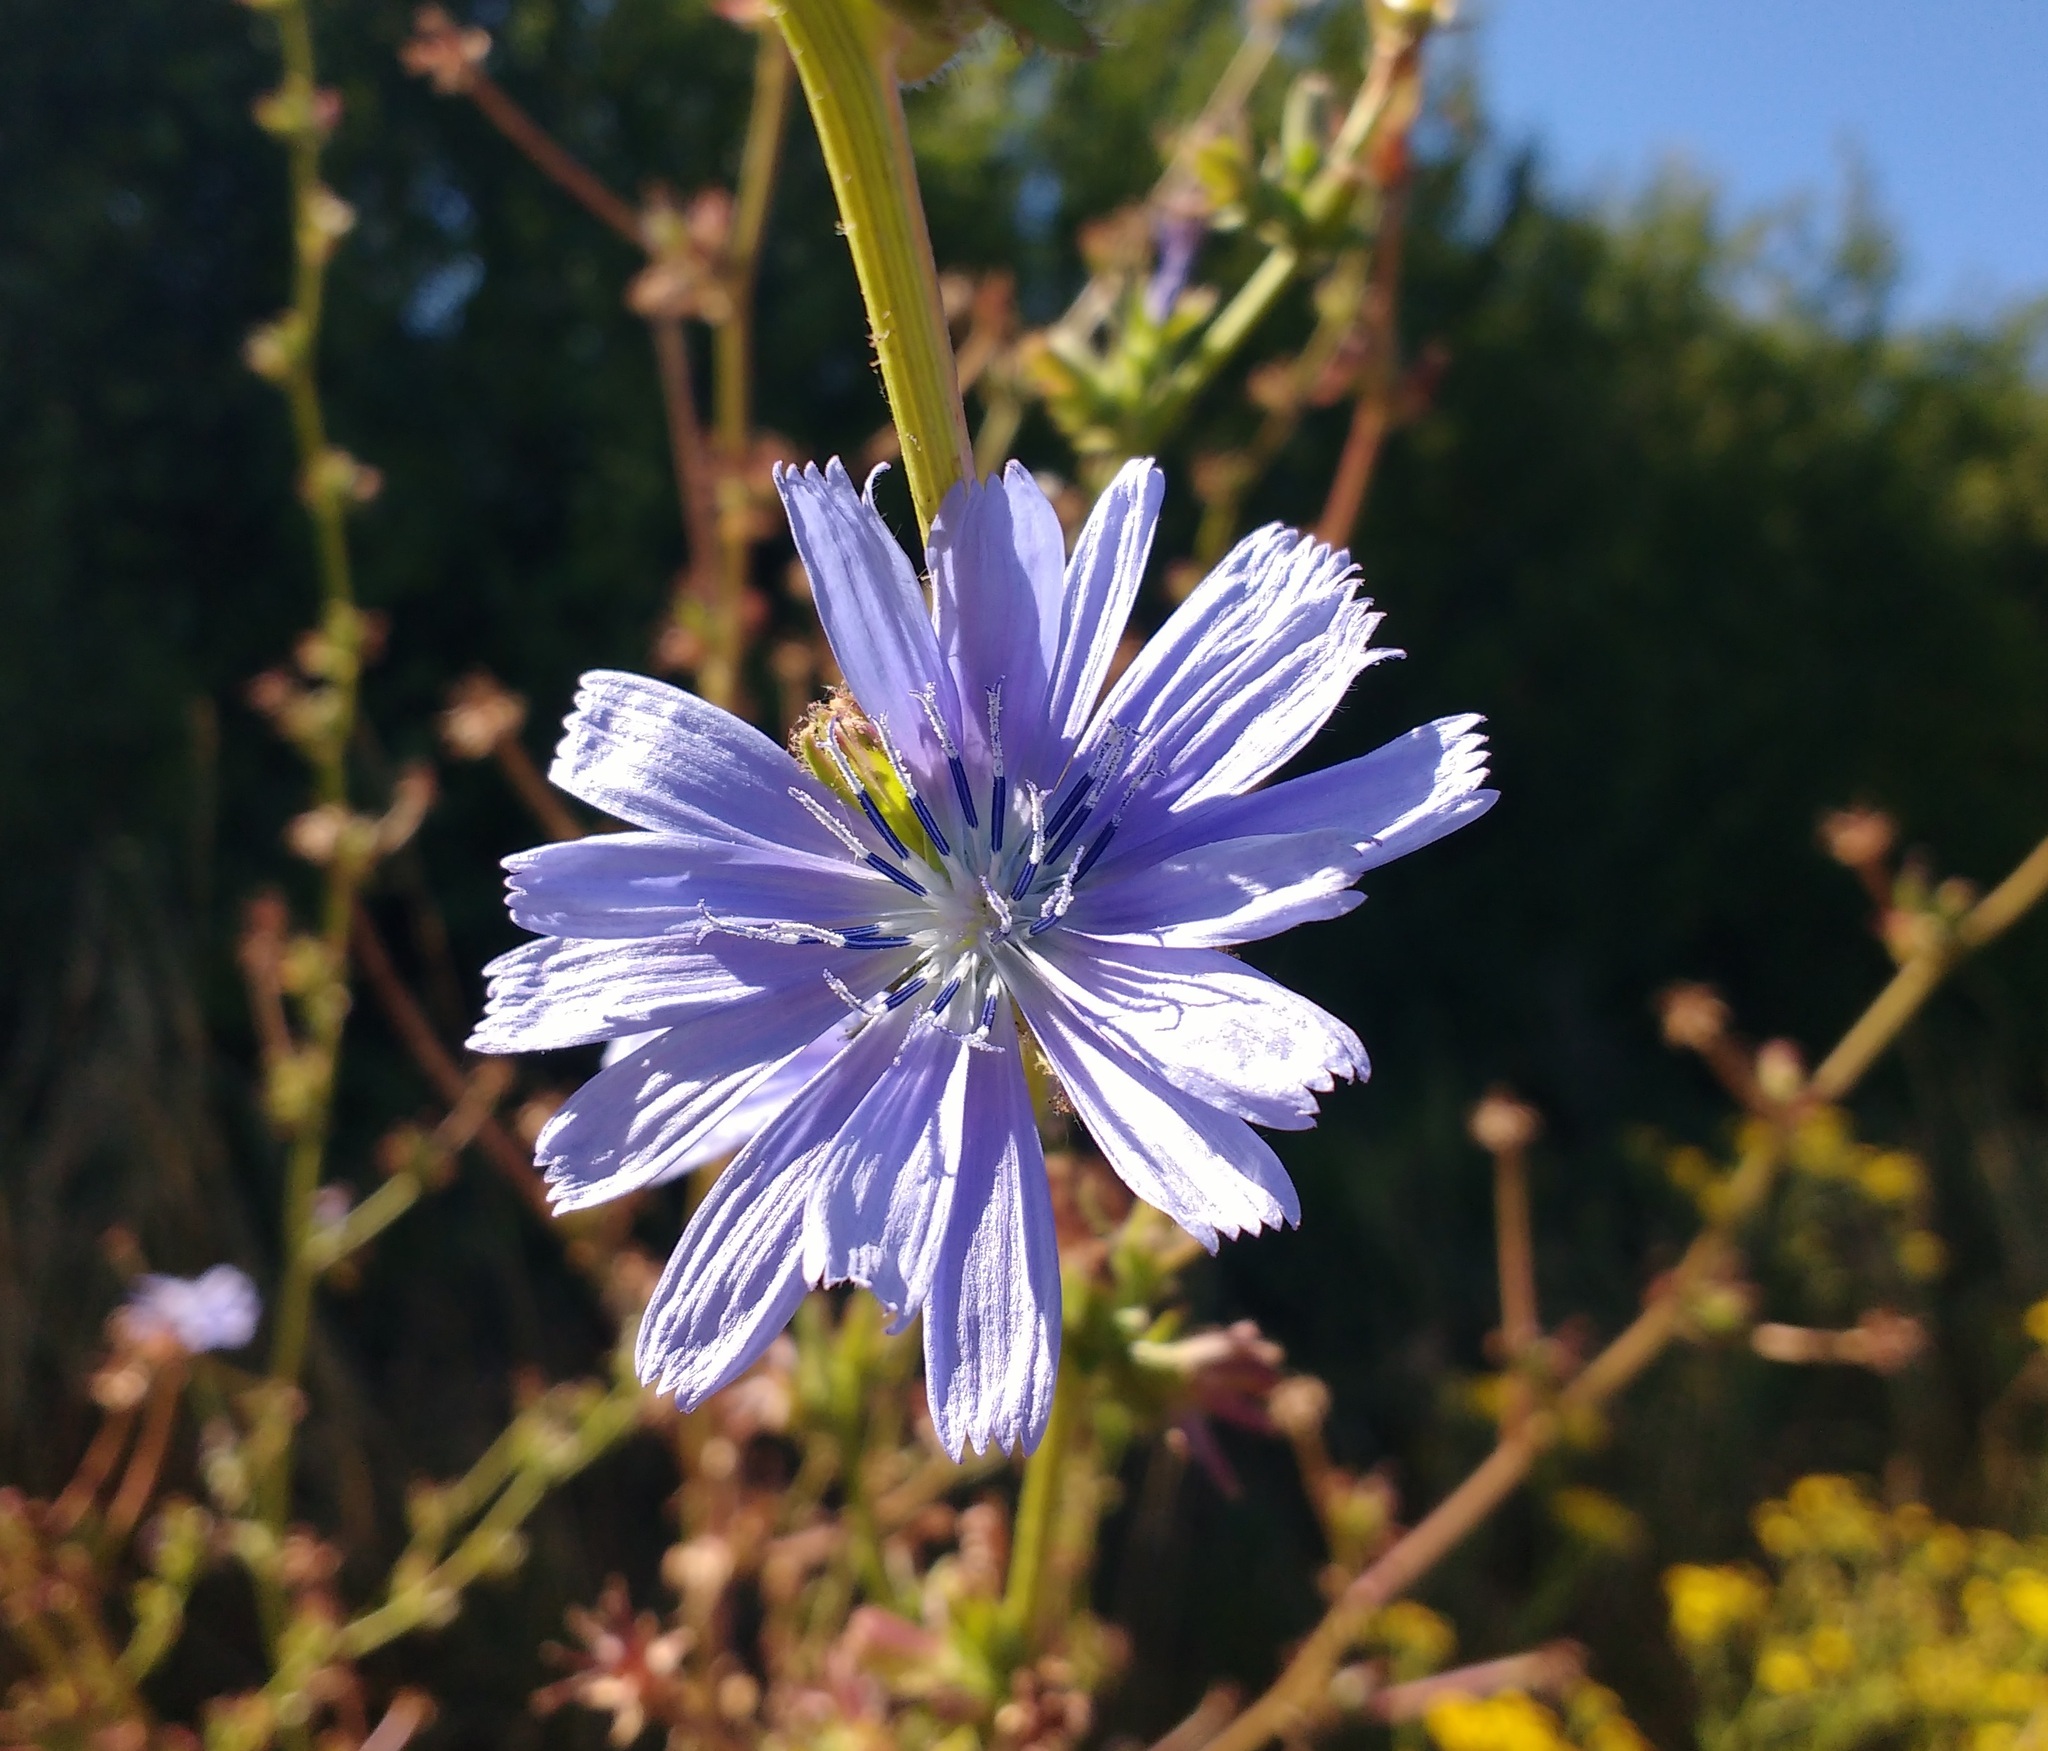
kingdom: Plantae
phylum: Tracheophyta
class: Magnoliopsida
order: Asterales
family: Asteraceae
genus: Cichorium
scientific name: Cichorium intybus
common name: Chicory
